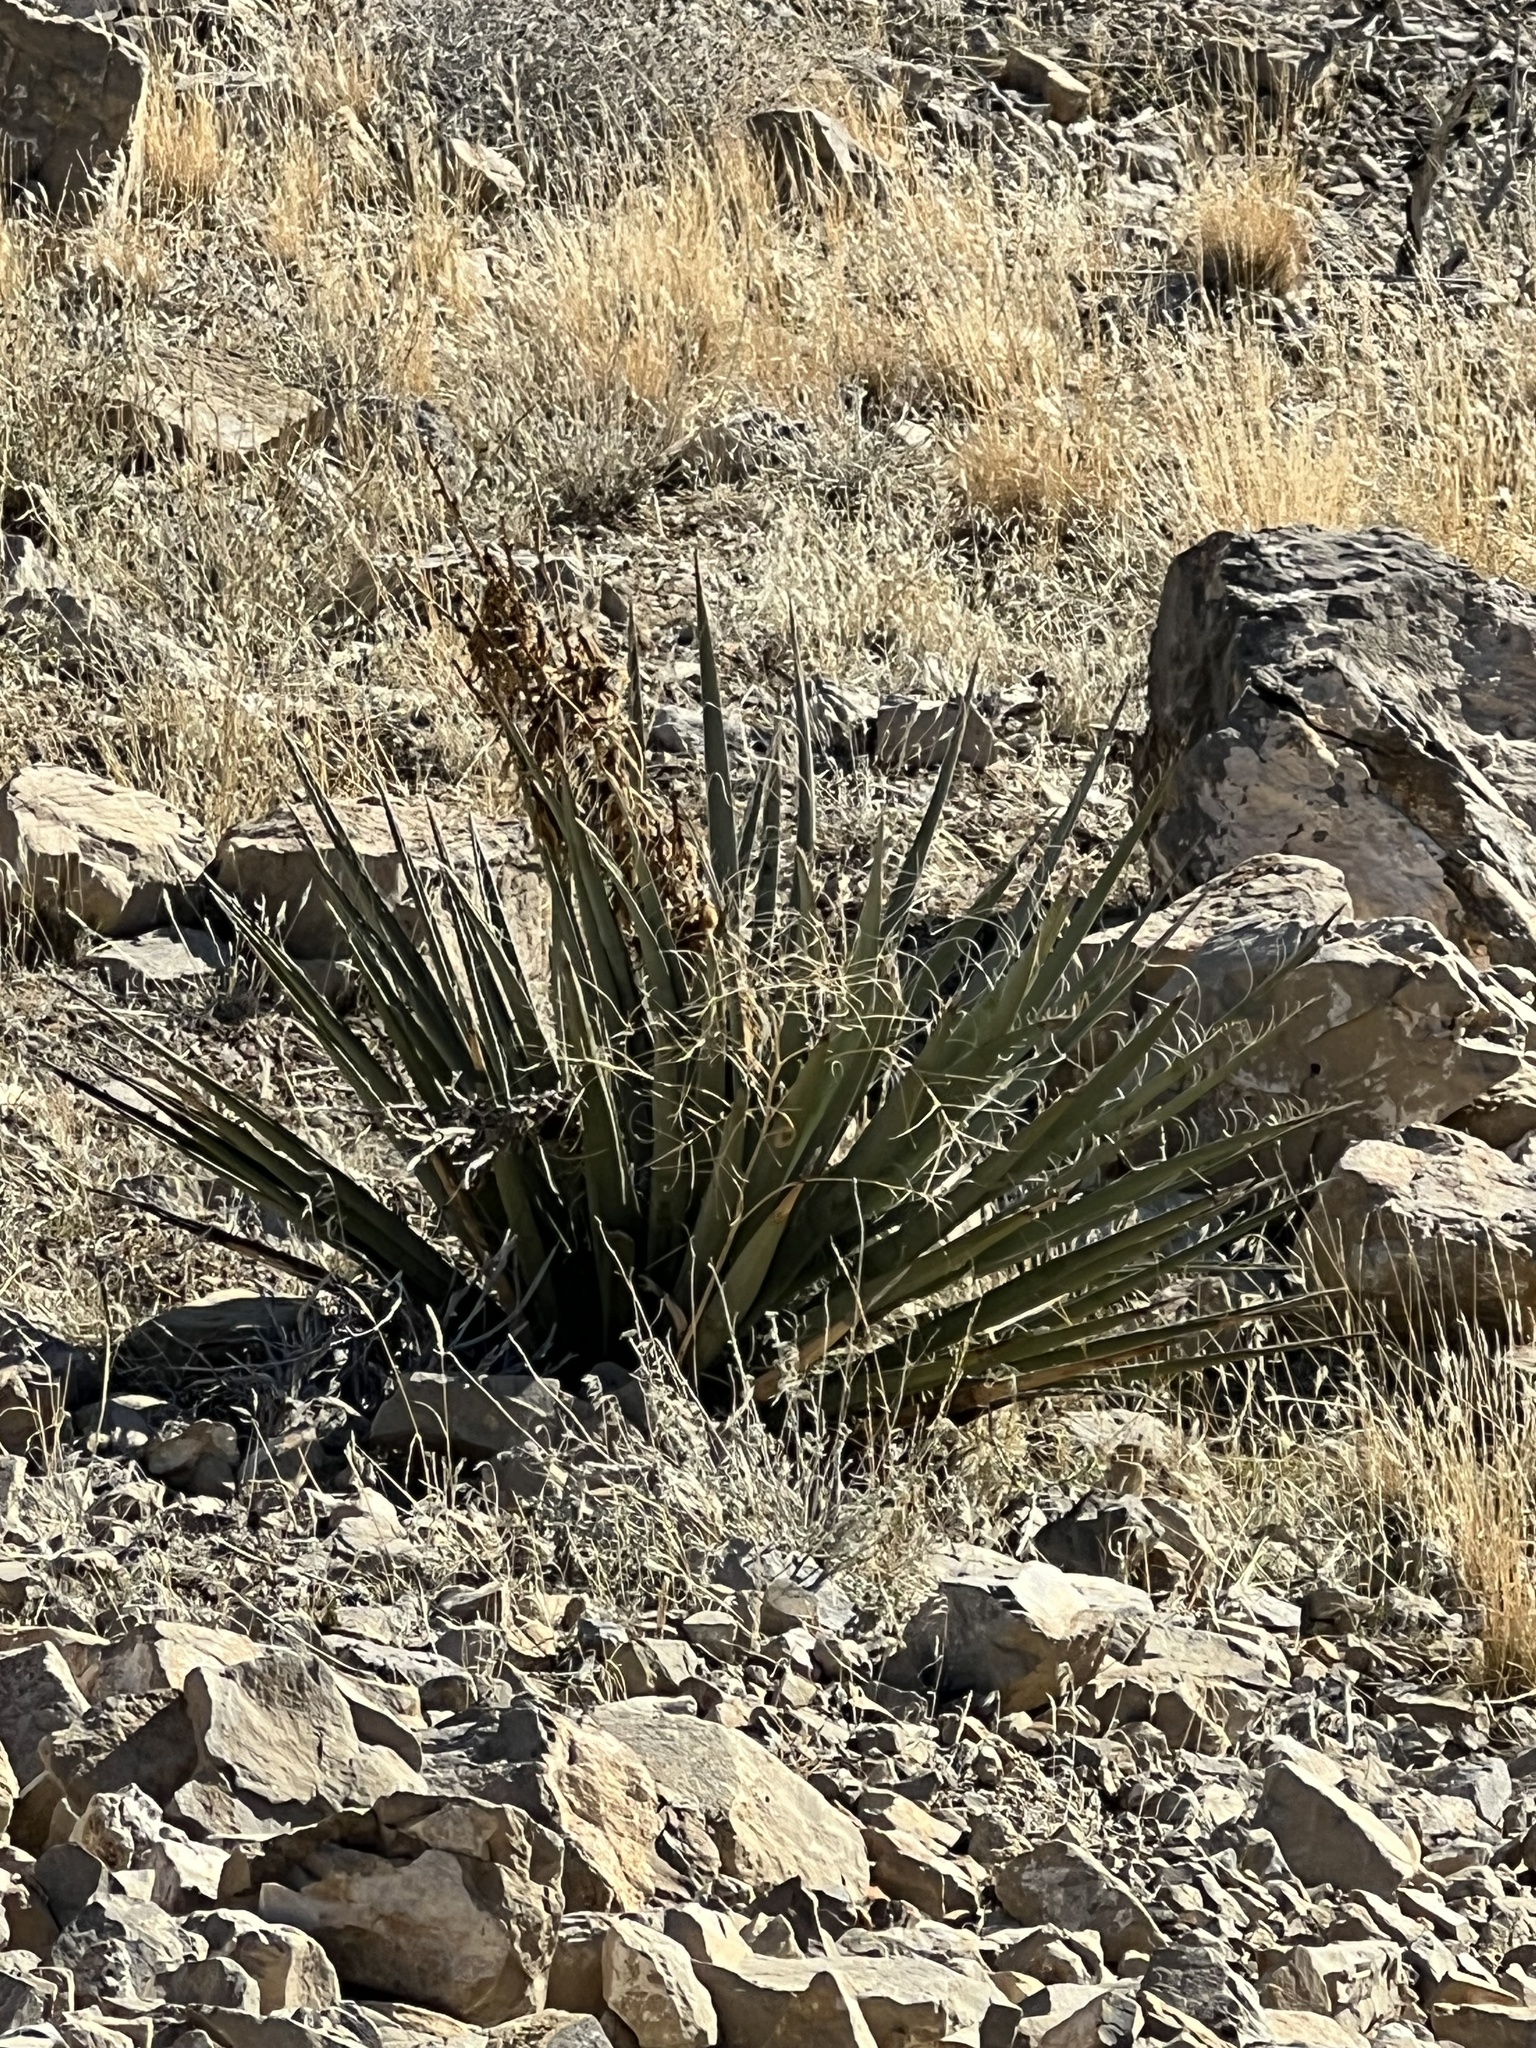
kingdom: Plantae
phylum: Tracheophyta
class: Liliopsida
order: Asparagales
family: Asparagaceae
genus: Yucca
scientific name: Yucca baccata
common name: Banana yucca
